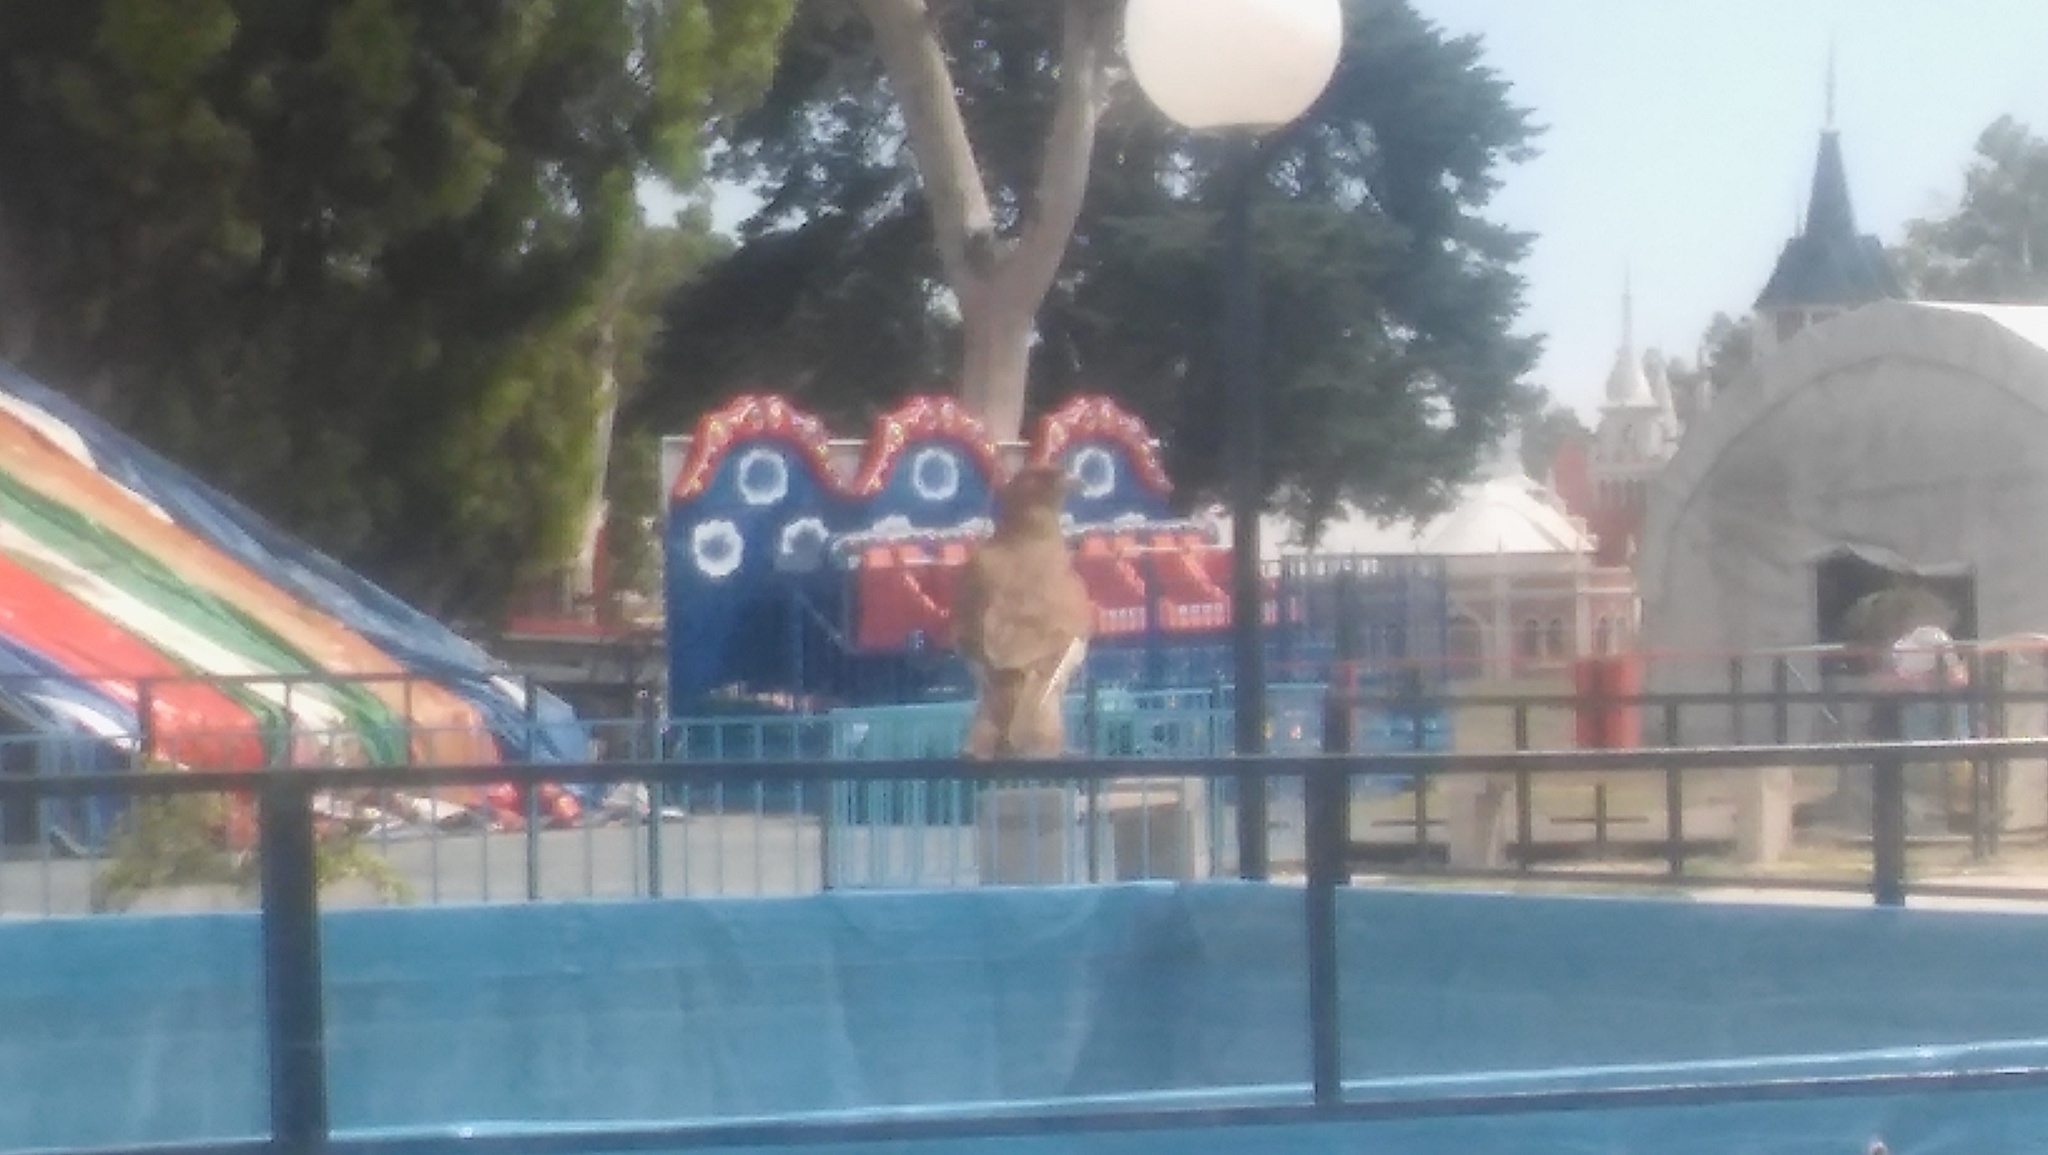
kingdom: Animalia
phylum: Chordata
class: Aves
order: Falconiformes
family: Falconidae
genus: Daptrius
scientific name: Daptrius
